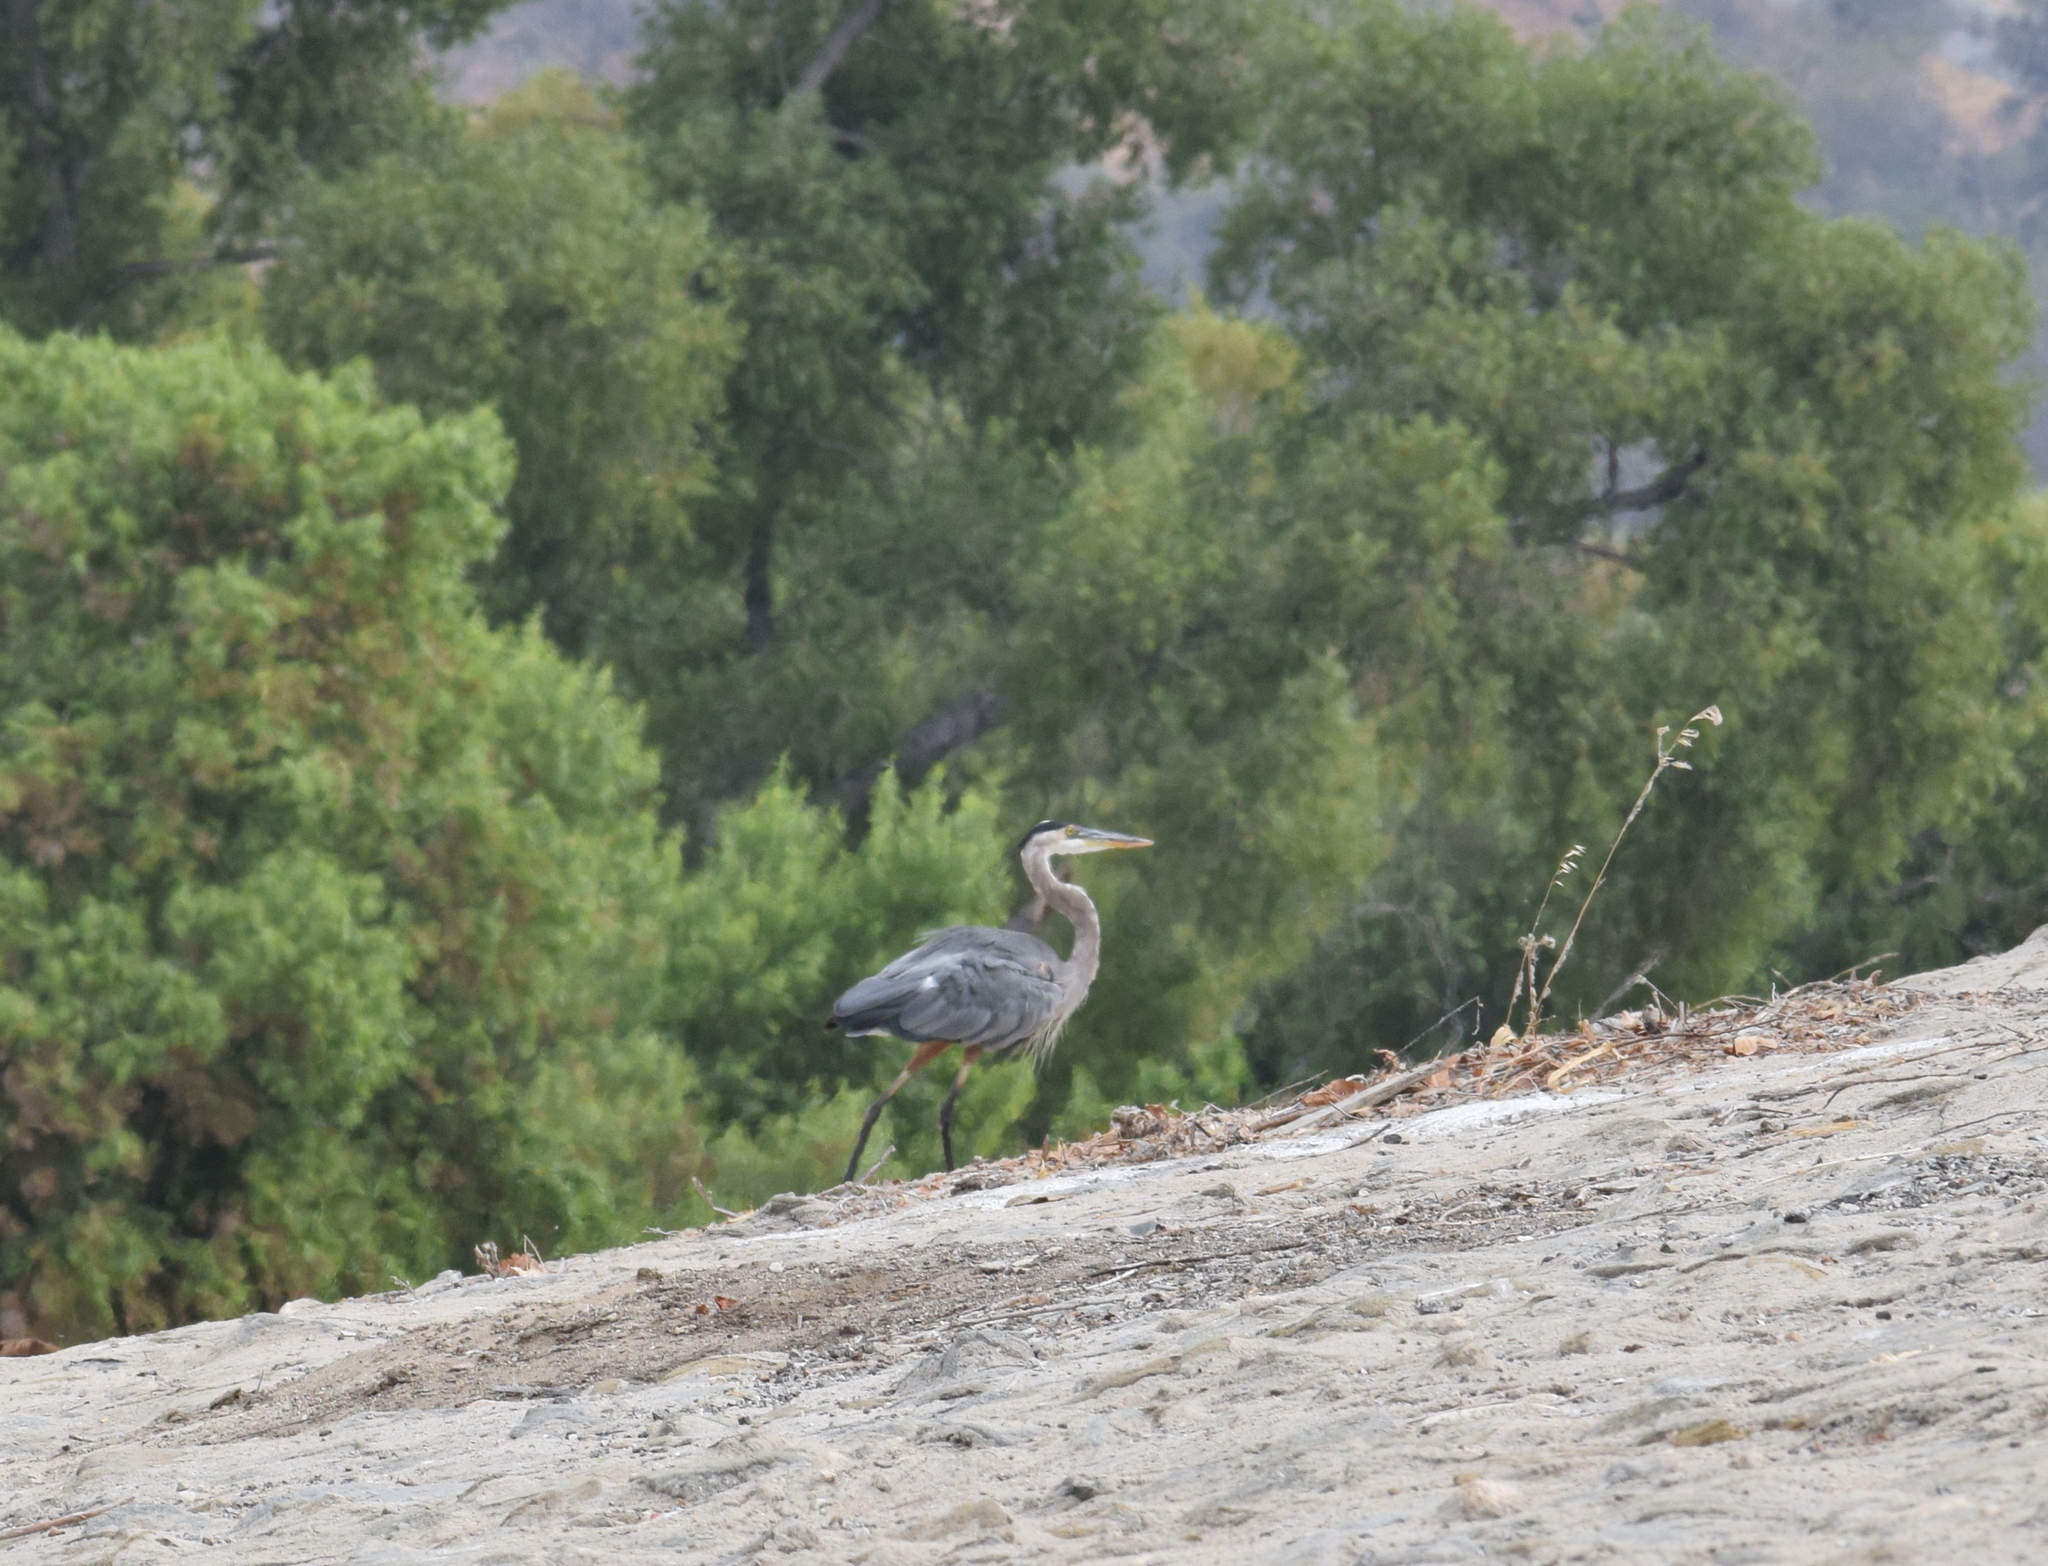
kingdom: Animalia
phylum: Chordata
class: Aves
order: Pelecaniformes
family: Ardeidae
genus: Ardea
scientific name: Ardea herodias
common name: Great blue heron
